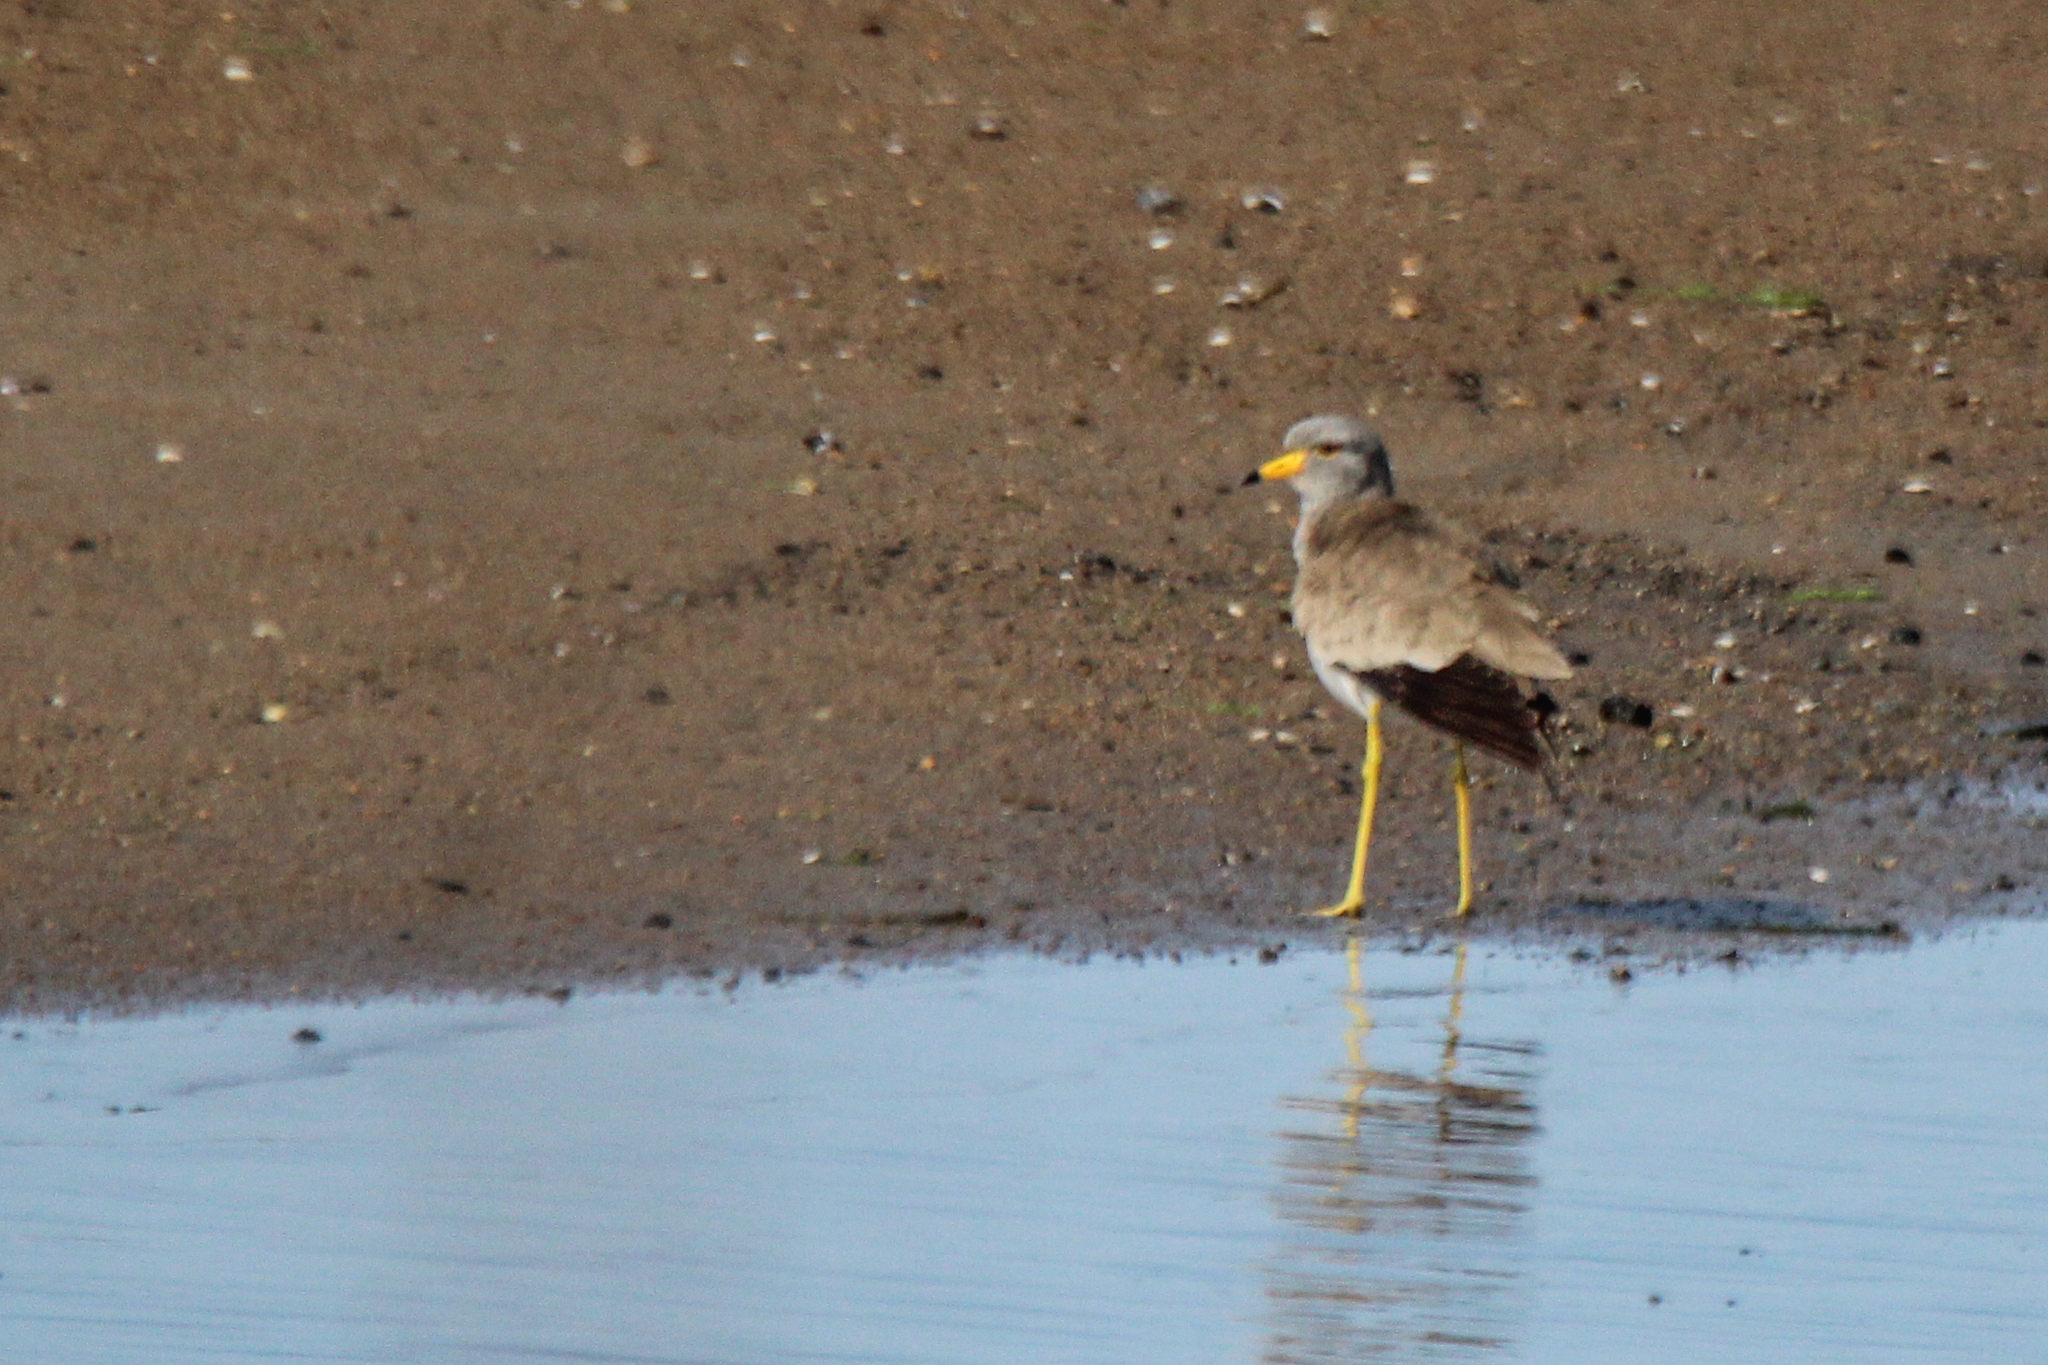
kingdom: Animalia
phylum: Chordata
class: Aves
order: Charadriiformes
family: Charadriidae
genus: Vanellus
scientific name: Vanellus cinereus
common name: Grey-headed lapwing
